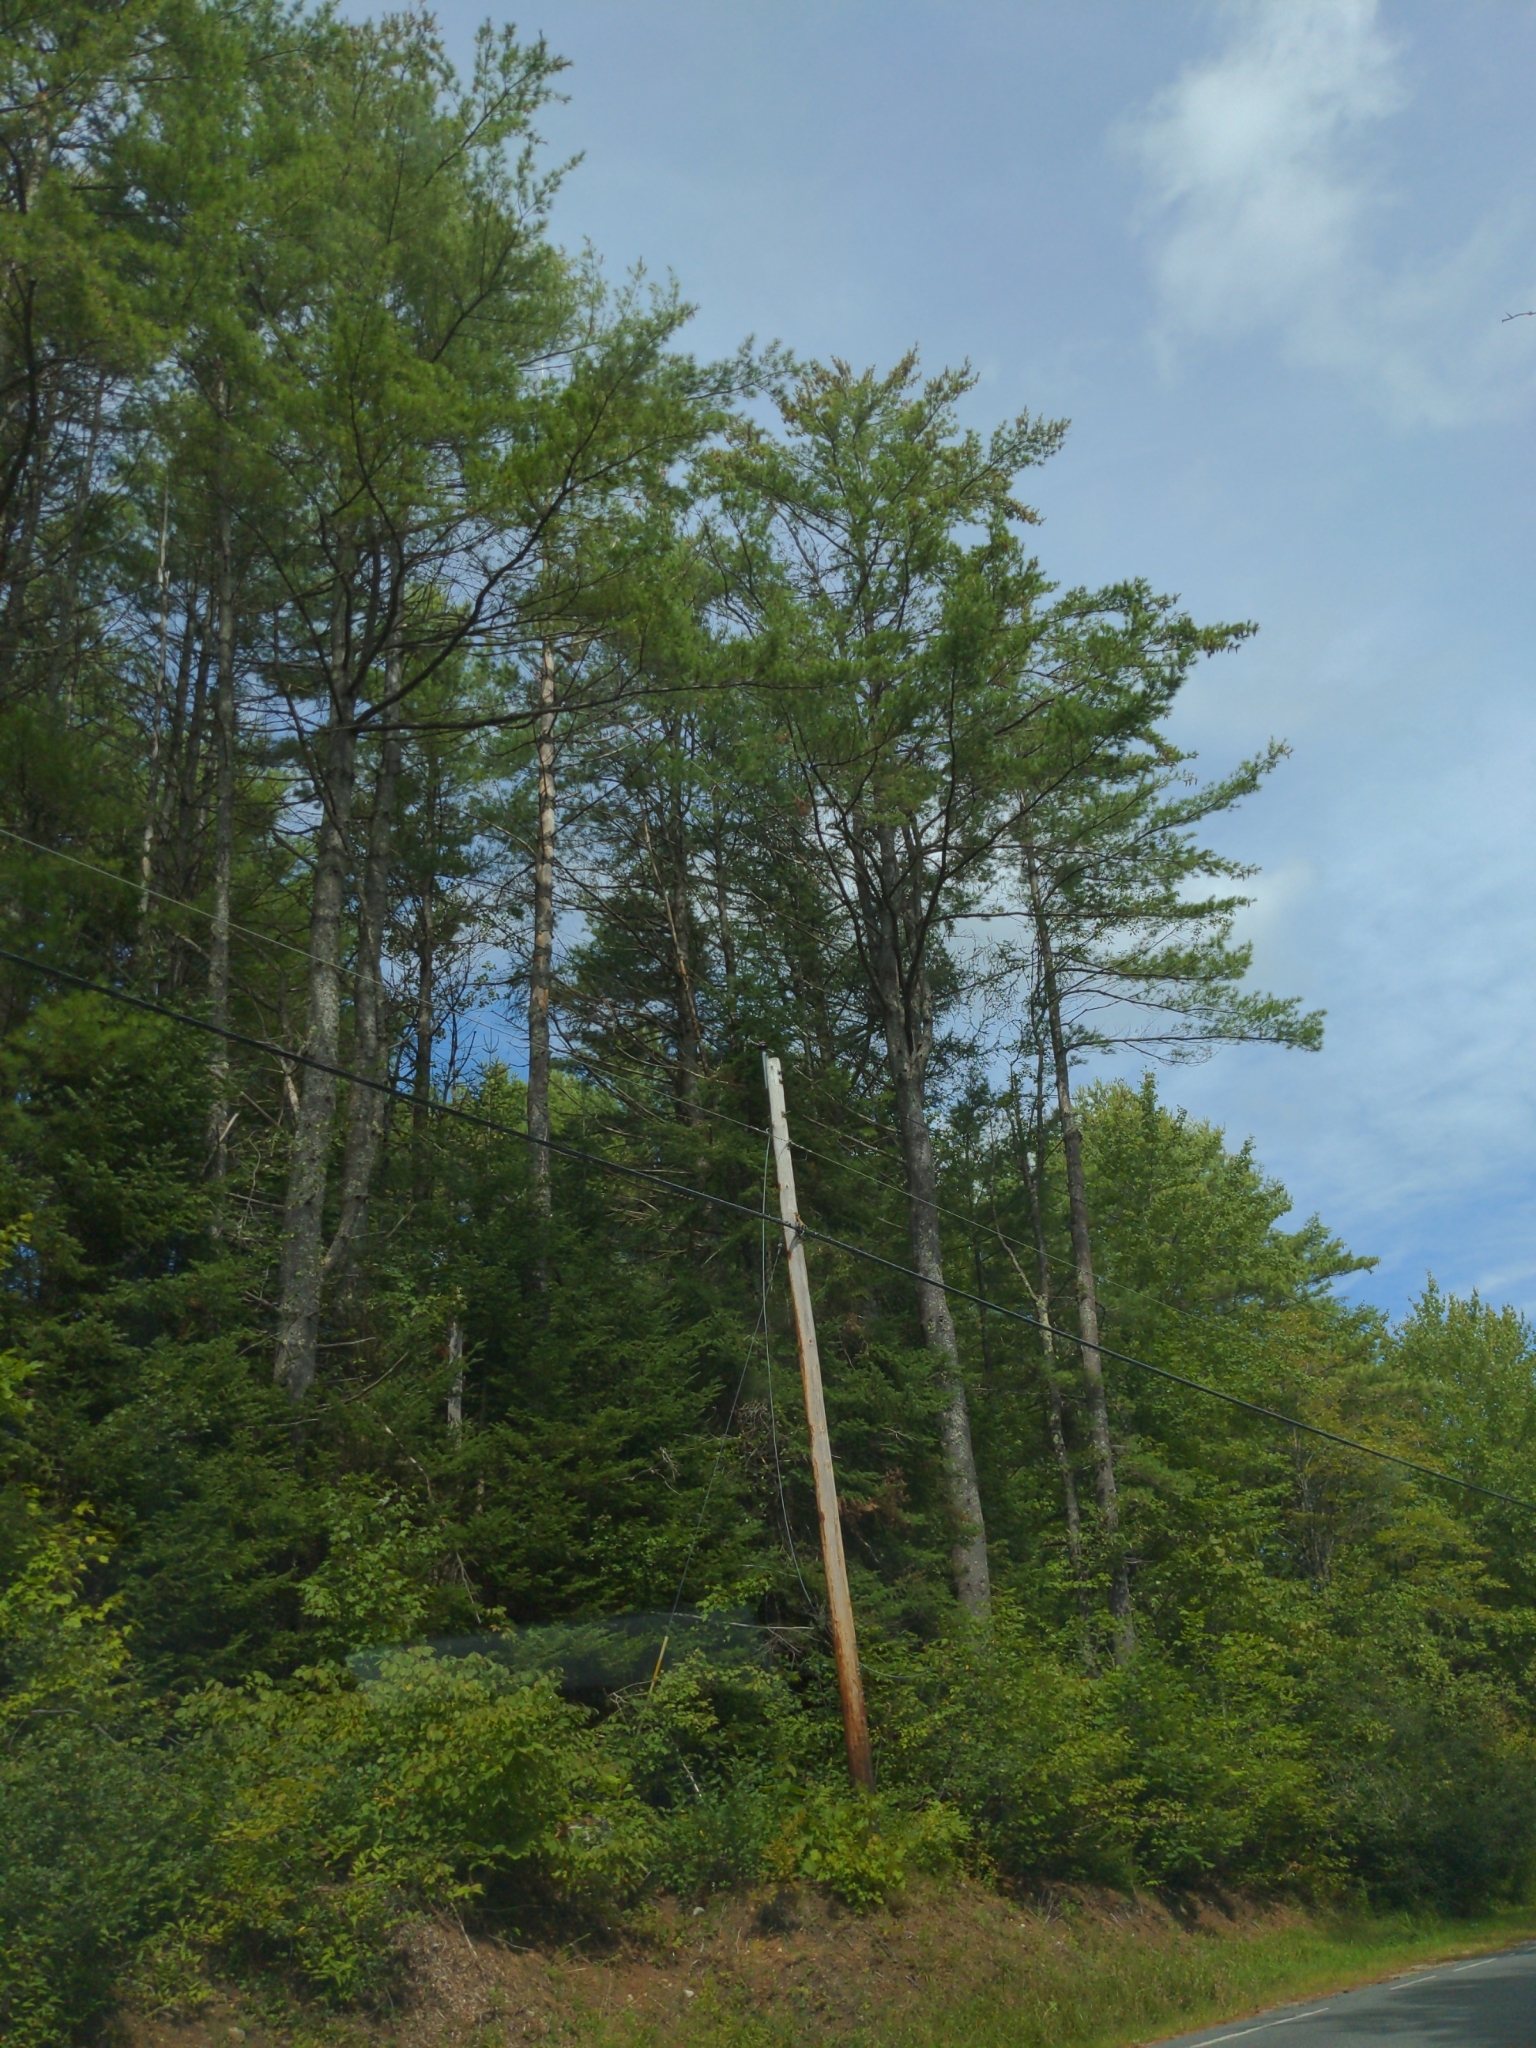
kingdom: Plantae
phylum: Tracheophyta
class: Pinopsida
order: Pinales
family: Pinaceae
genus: Pinus
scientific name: Pinus strobus
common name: Weymouth pine
